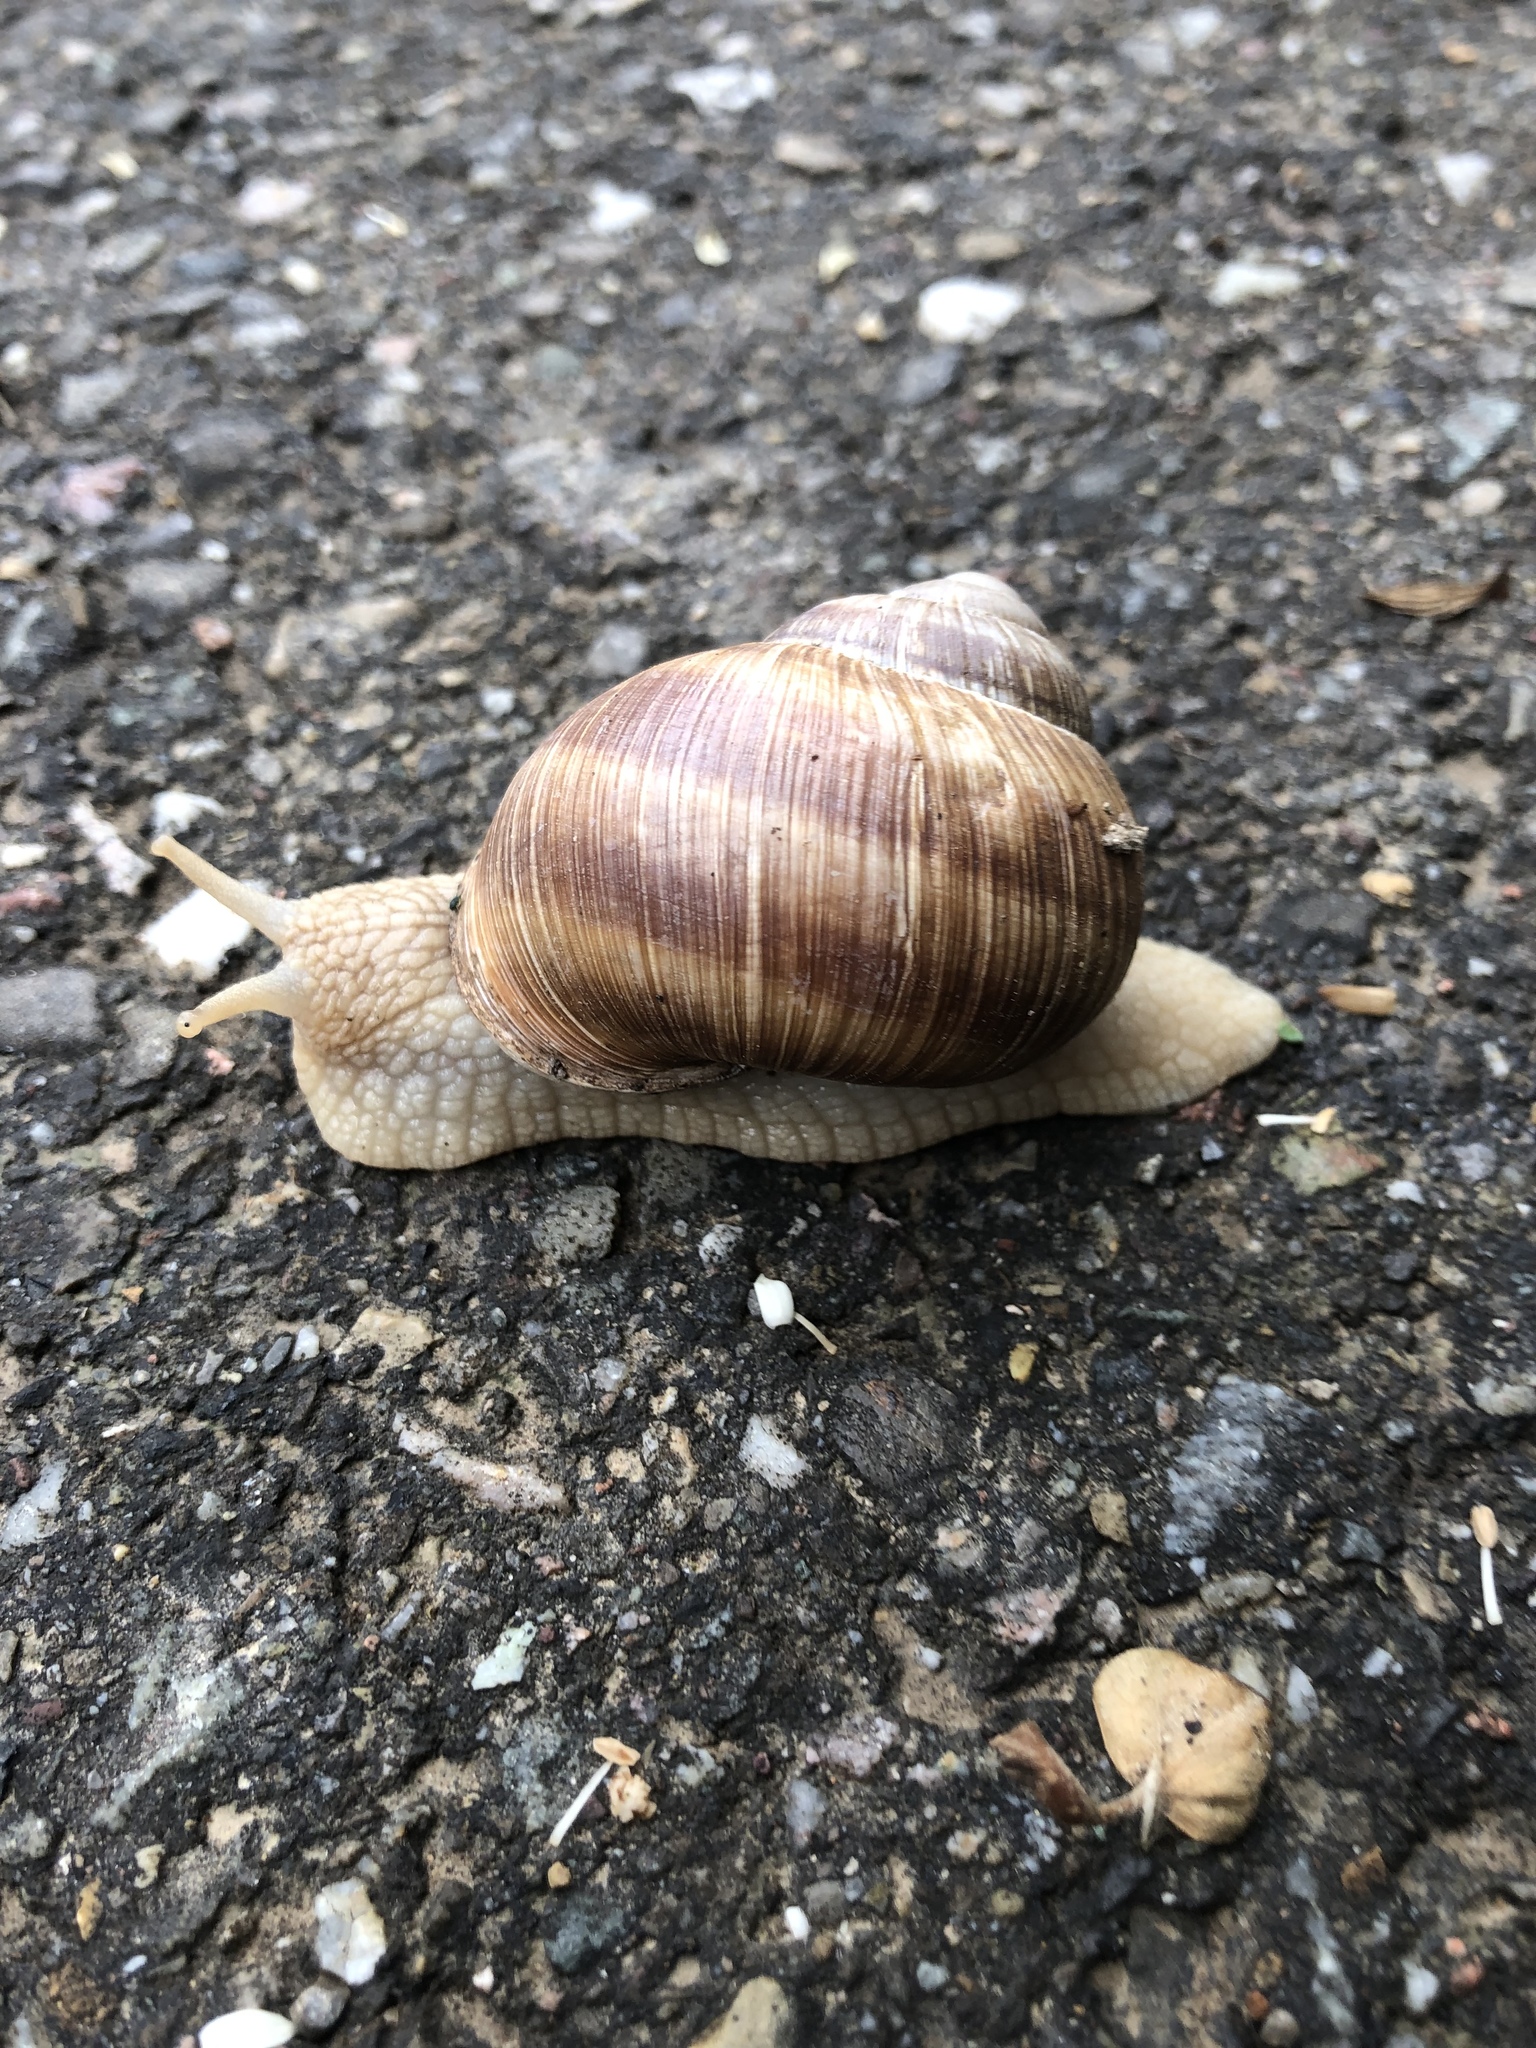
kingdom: Animalia
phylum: Mollusca
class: Gastropoda
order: Stylommatophora
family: Helicidae
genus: Helix
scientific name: Helix pomatia
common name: Roman snail
